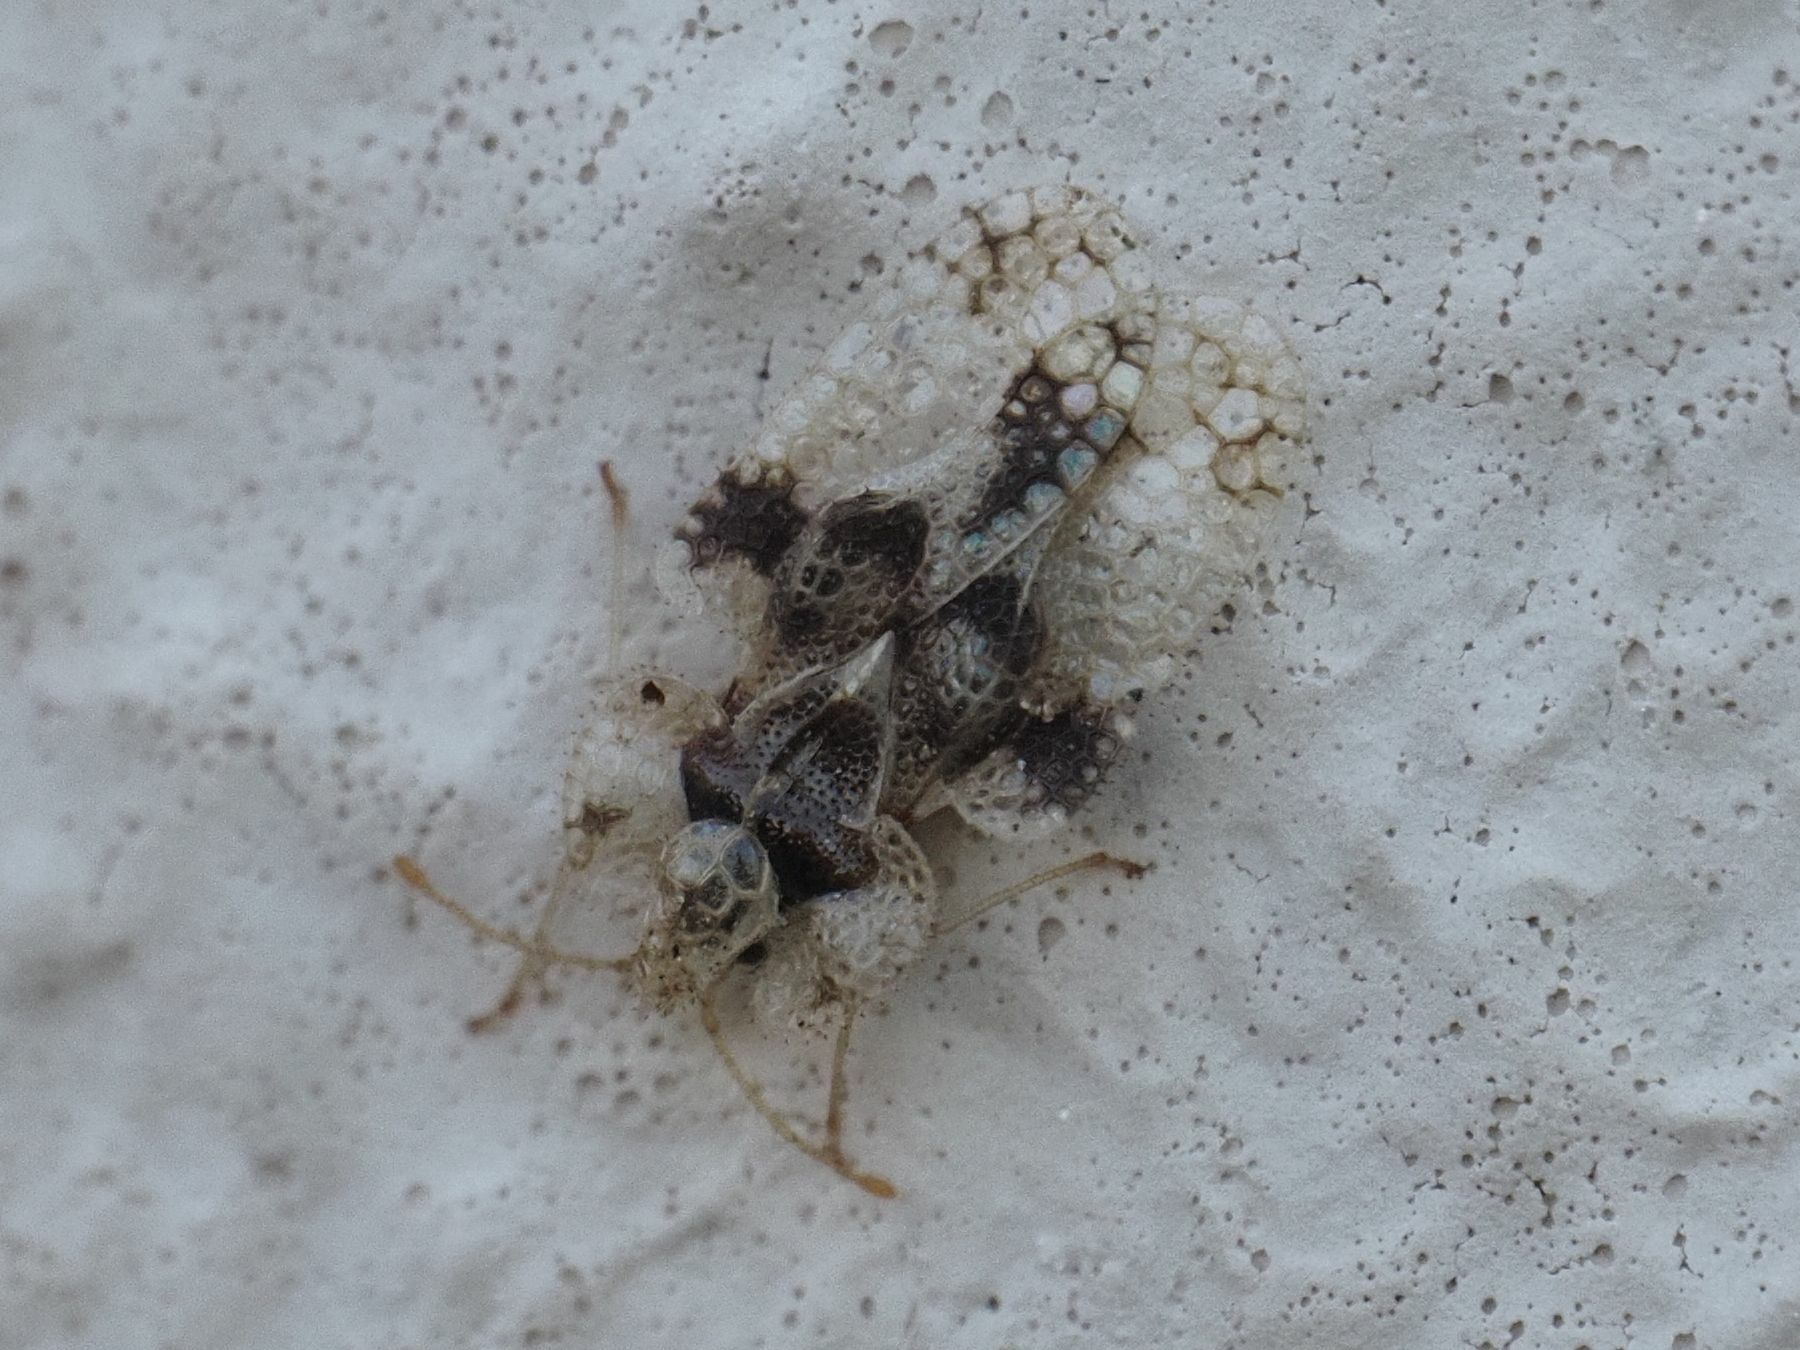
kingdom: Animalia
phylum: Arthropoda
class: Insecta
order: Hemiptera
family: Tingidae
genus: Corythucha
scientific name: Corythucha arcuata
